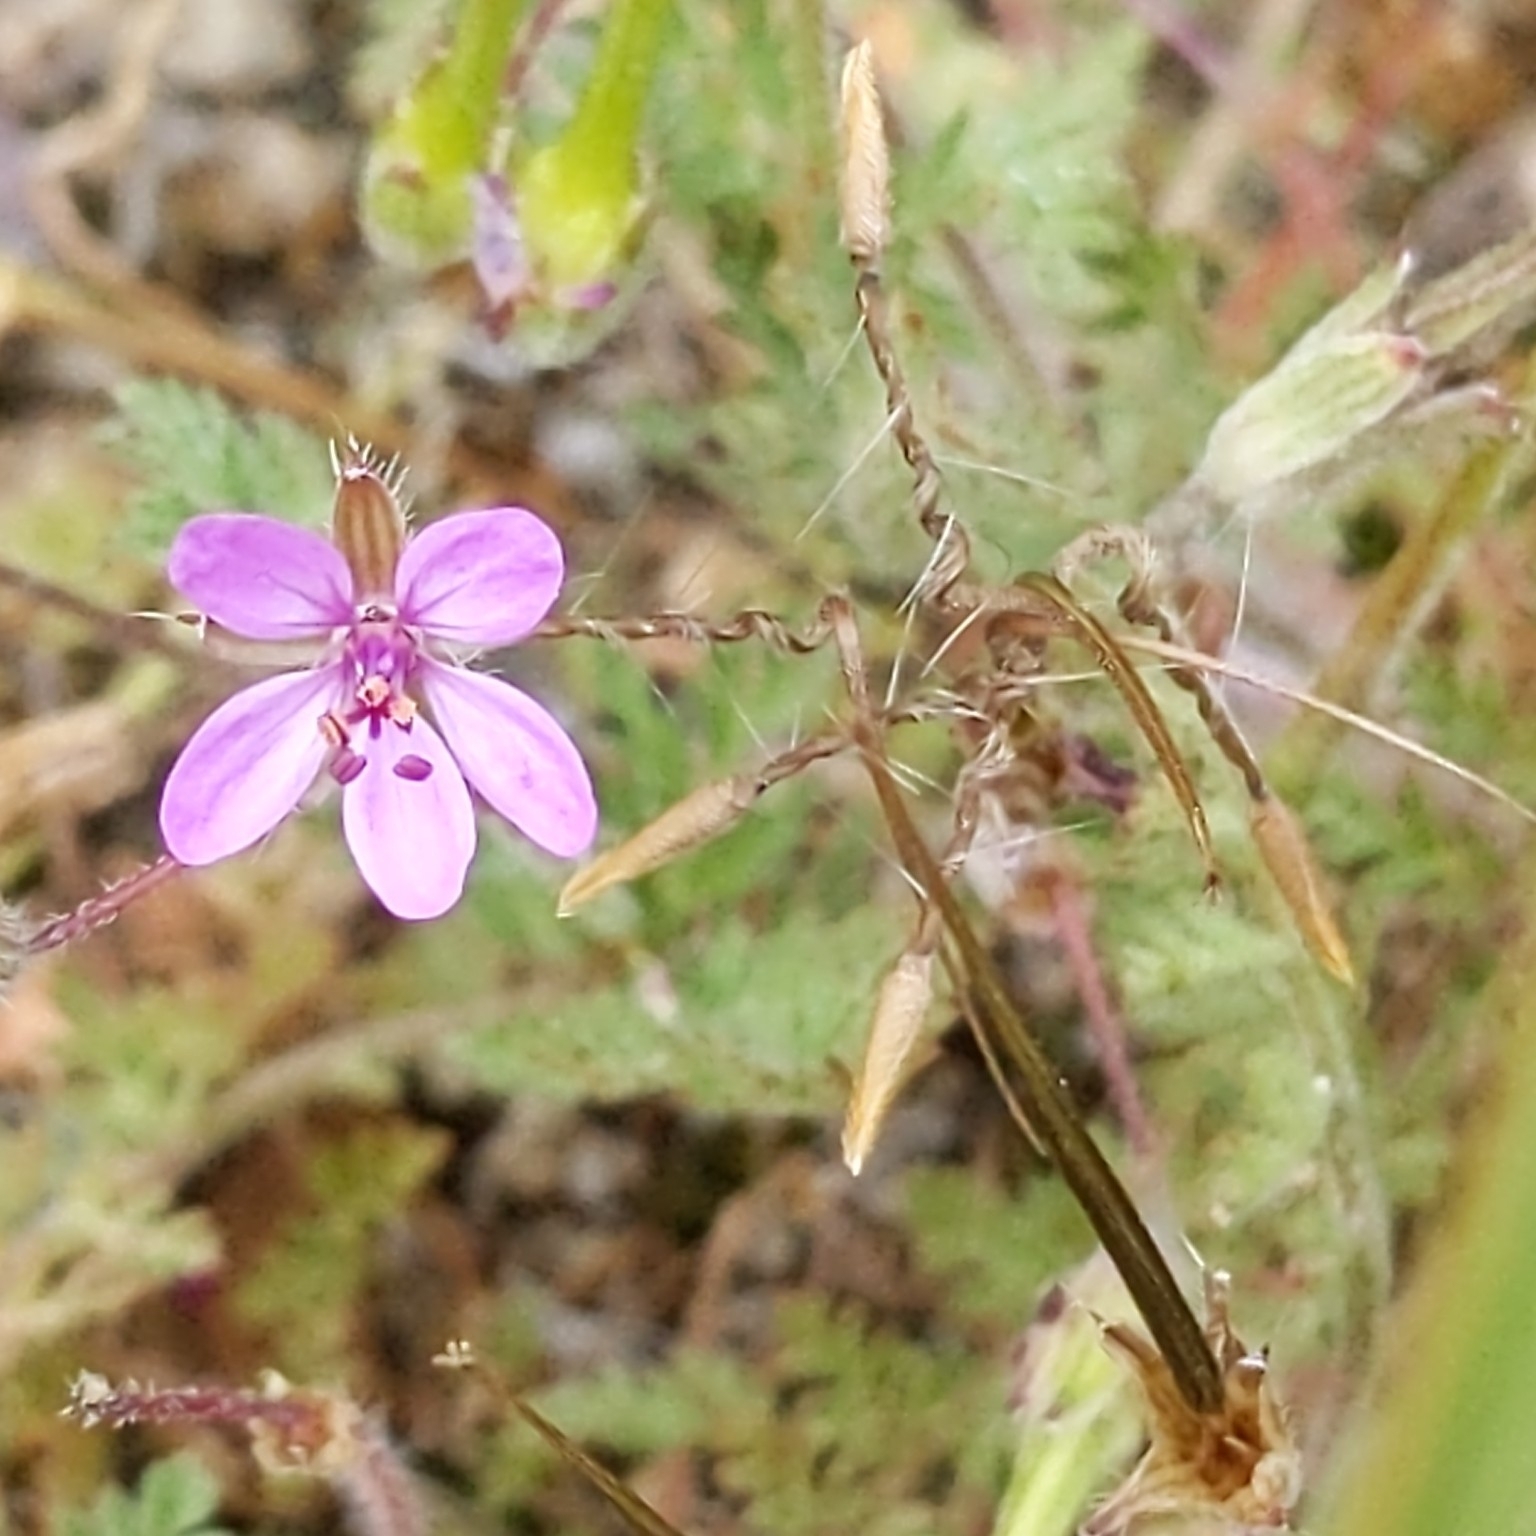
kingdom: Plantae
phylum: Tracheophyta
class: Magnoliopsida
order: Geraniales
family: Geraniaceae
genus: Erodium
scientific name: Erodium cicutarium
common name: Common stork's-bill
